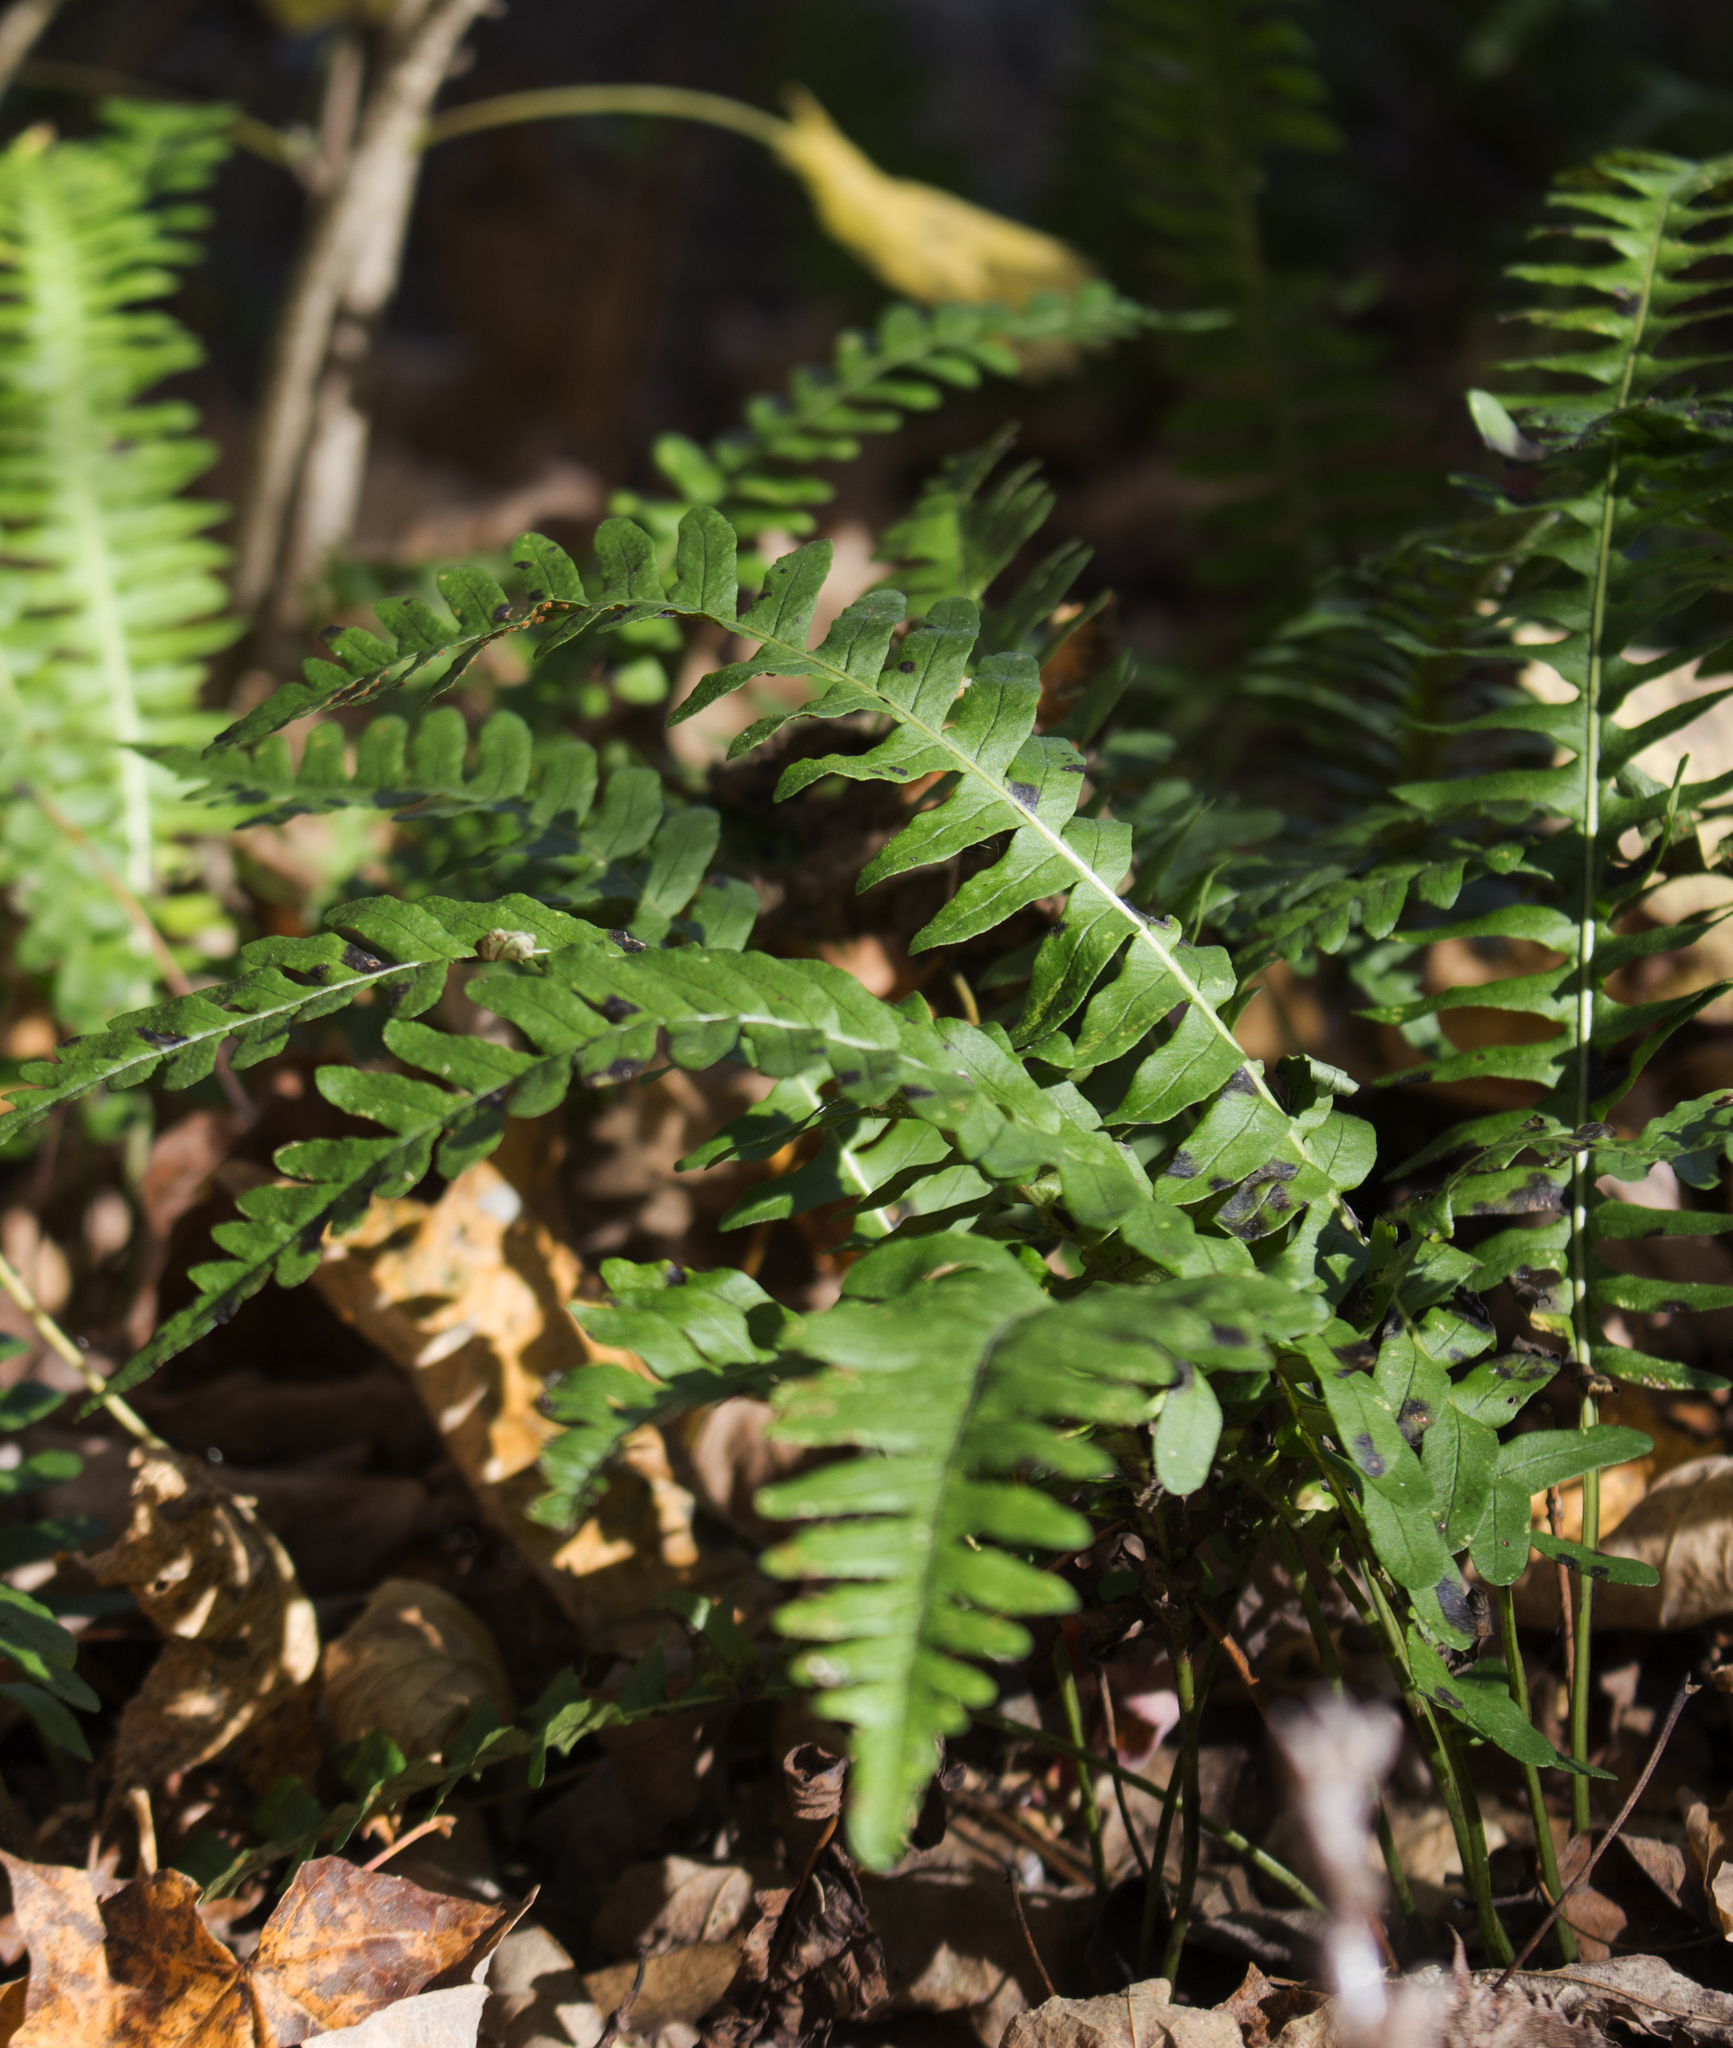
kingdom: Plantae
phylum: Tracheophyta
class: Polypodiopsida
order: Polypodiales
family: Polypodiaceae
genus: Polypodium
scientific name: Polypodium virginianum
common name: American wall fern
